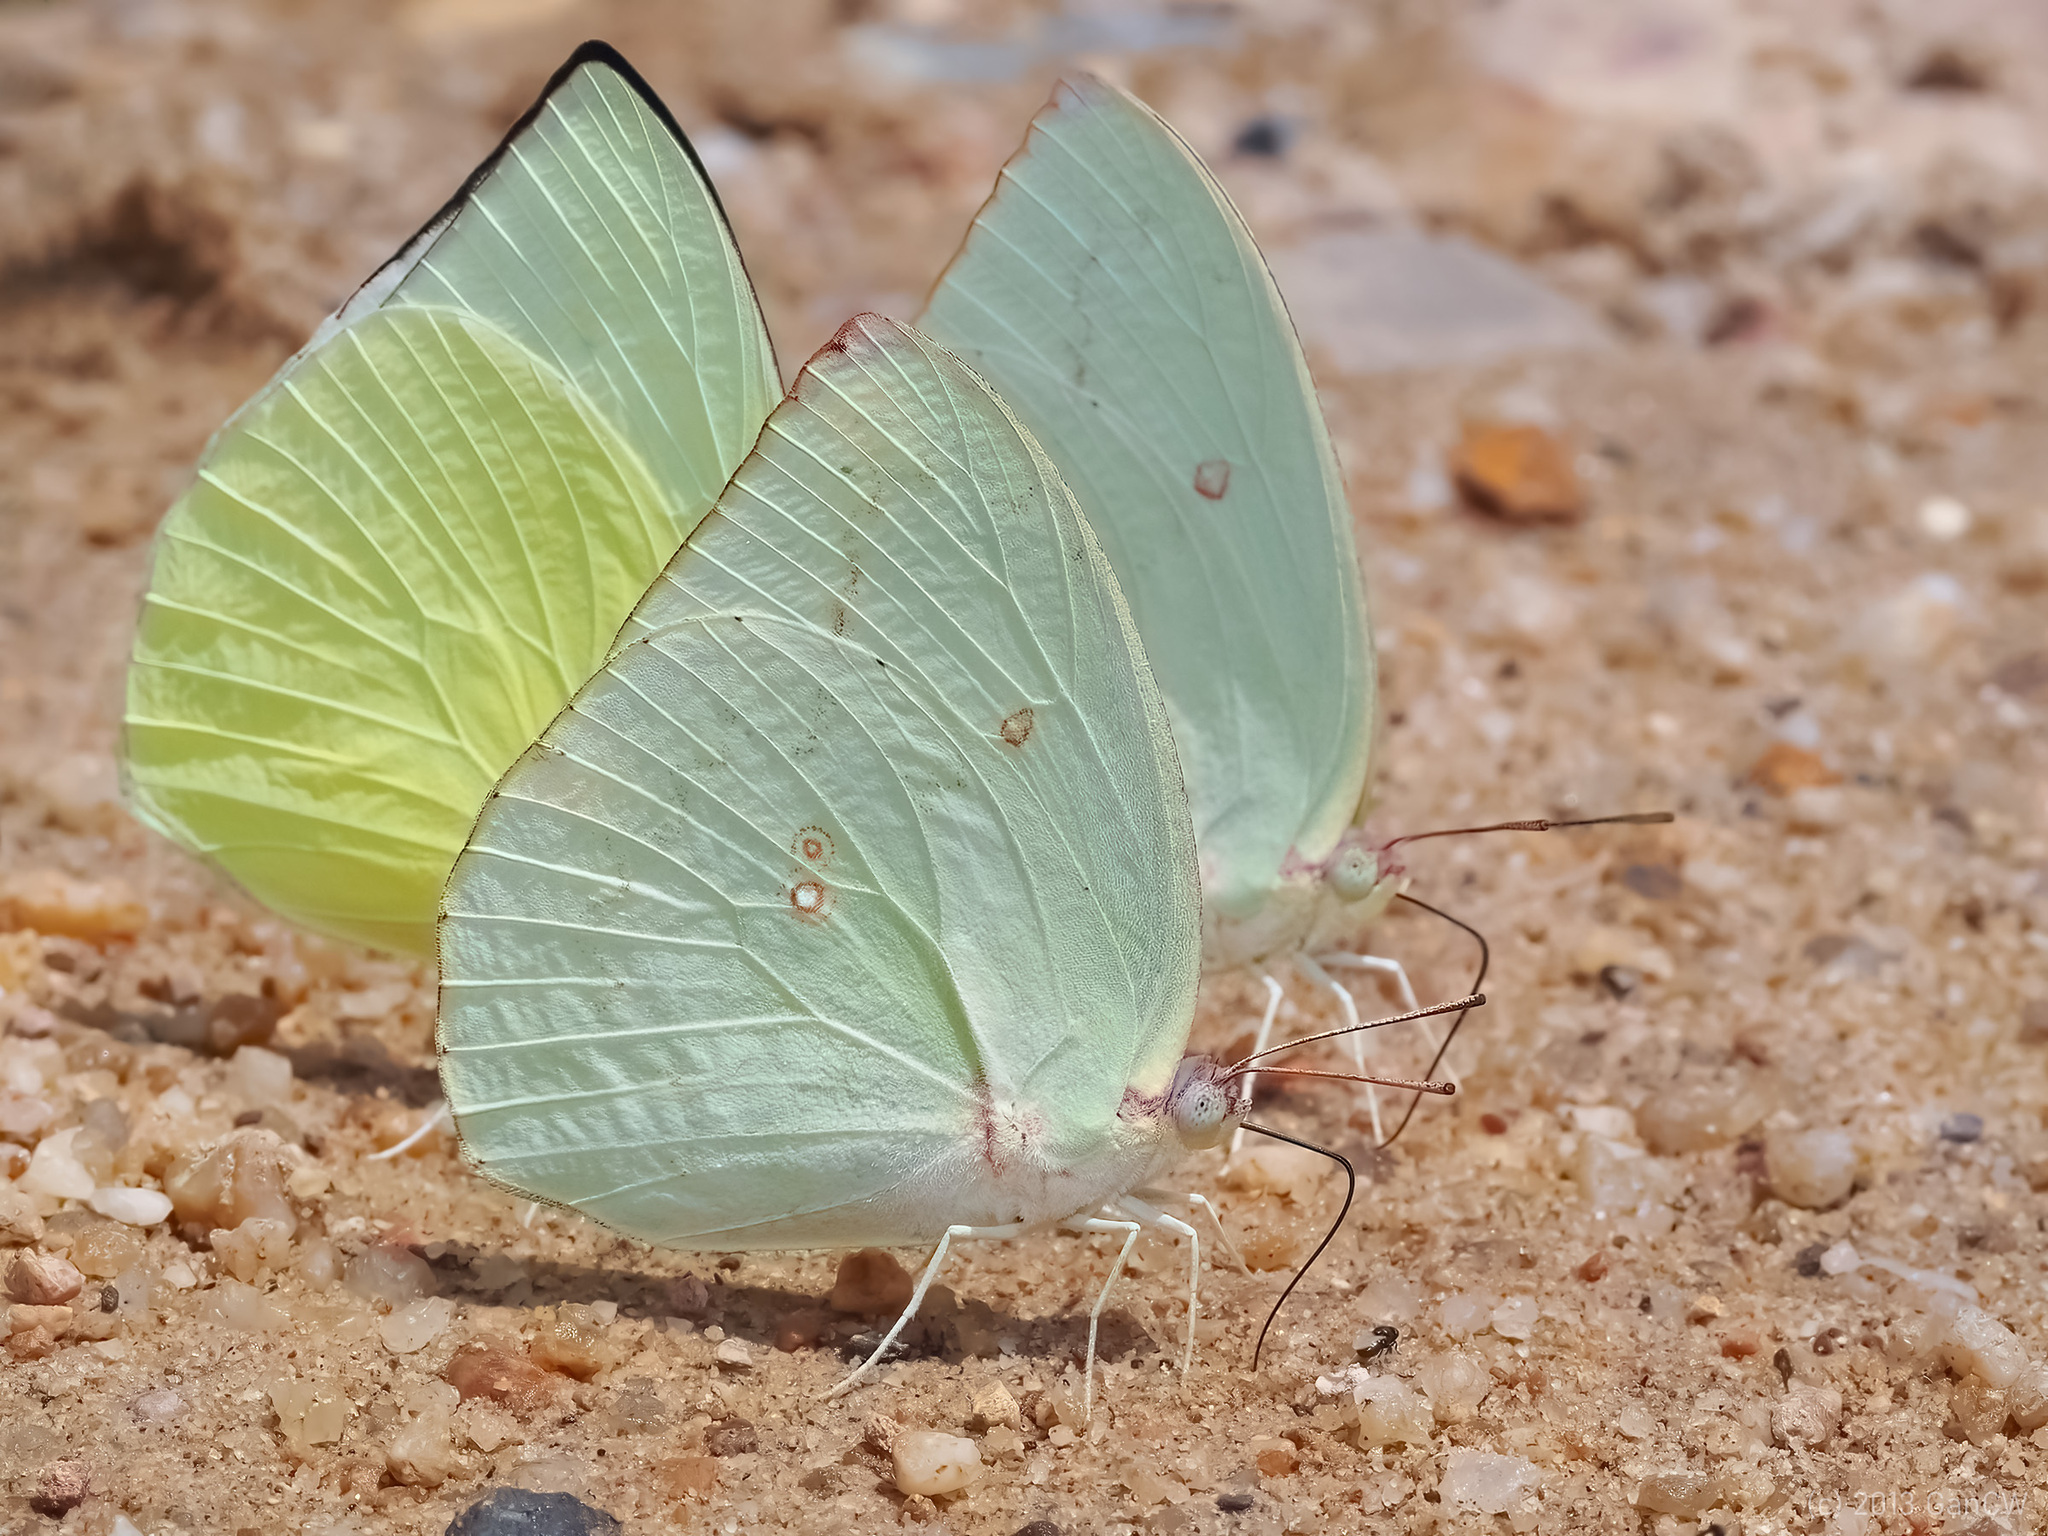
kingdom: Animalia
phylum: Arthropoda
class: Insecta
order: Lepidoptera
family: Pieridae
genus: Catopsilia
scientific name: Catopsilia pomona
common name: Common emigrant
